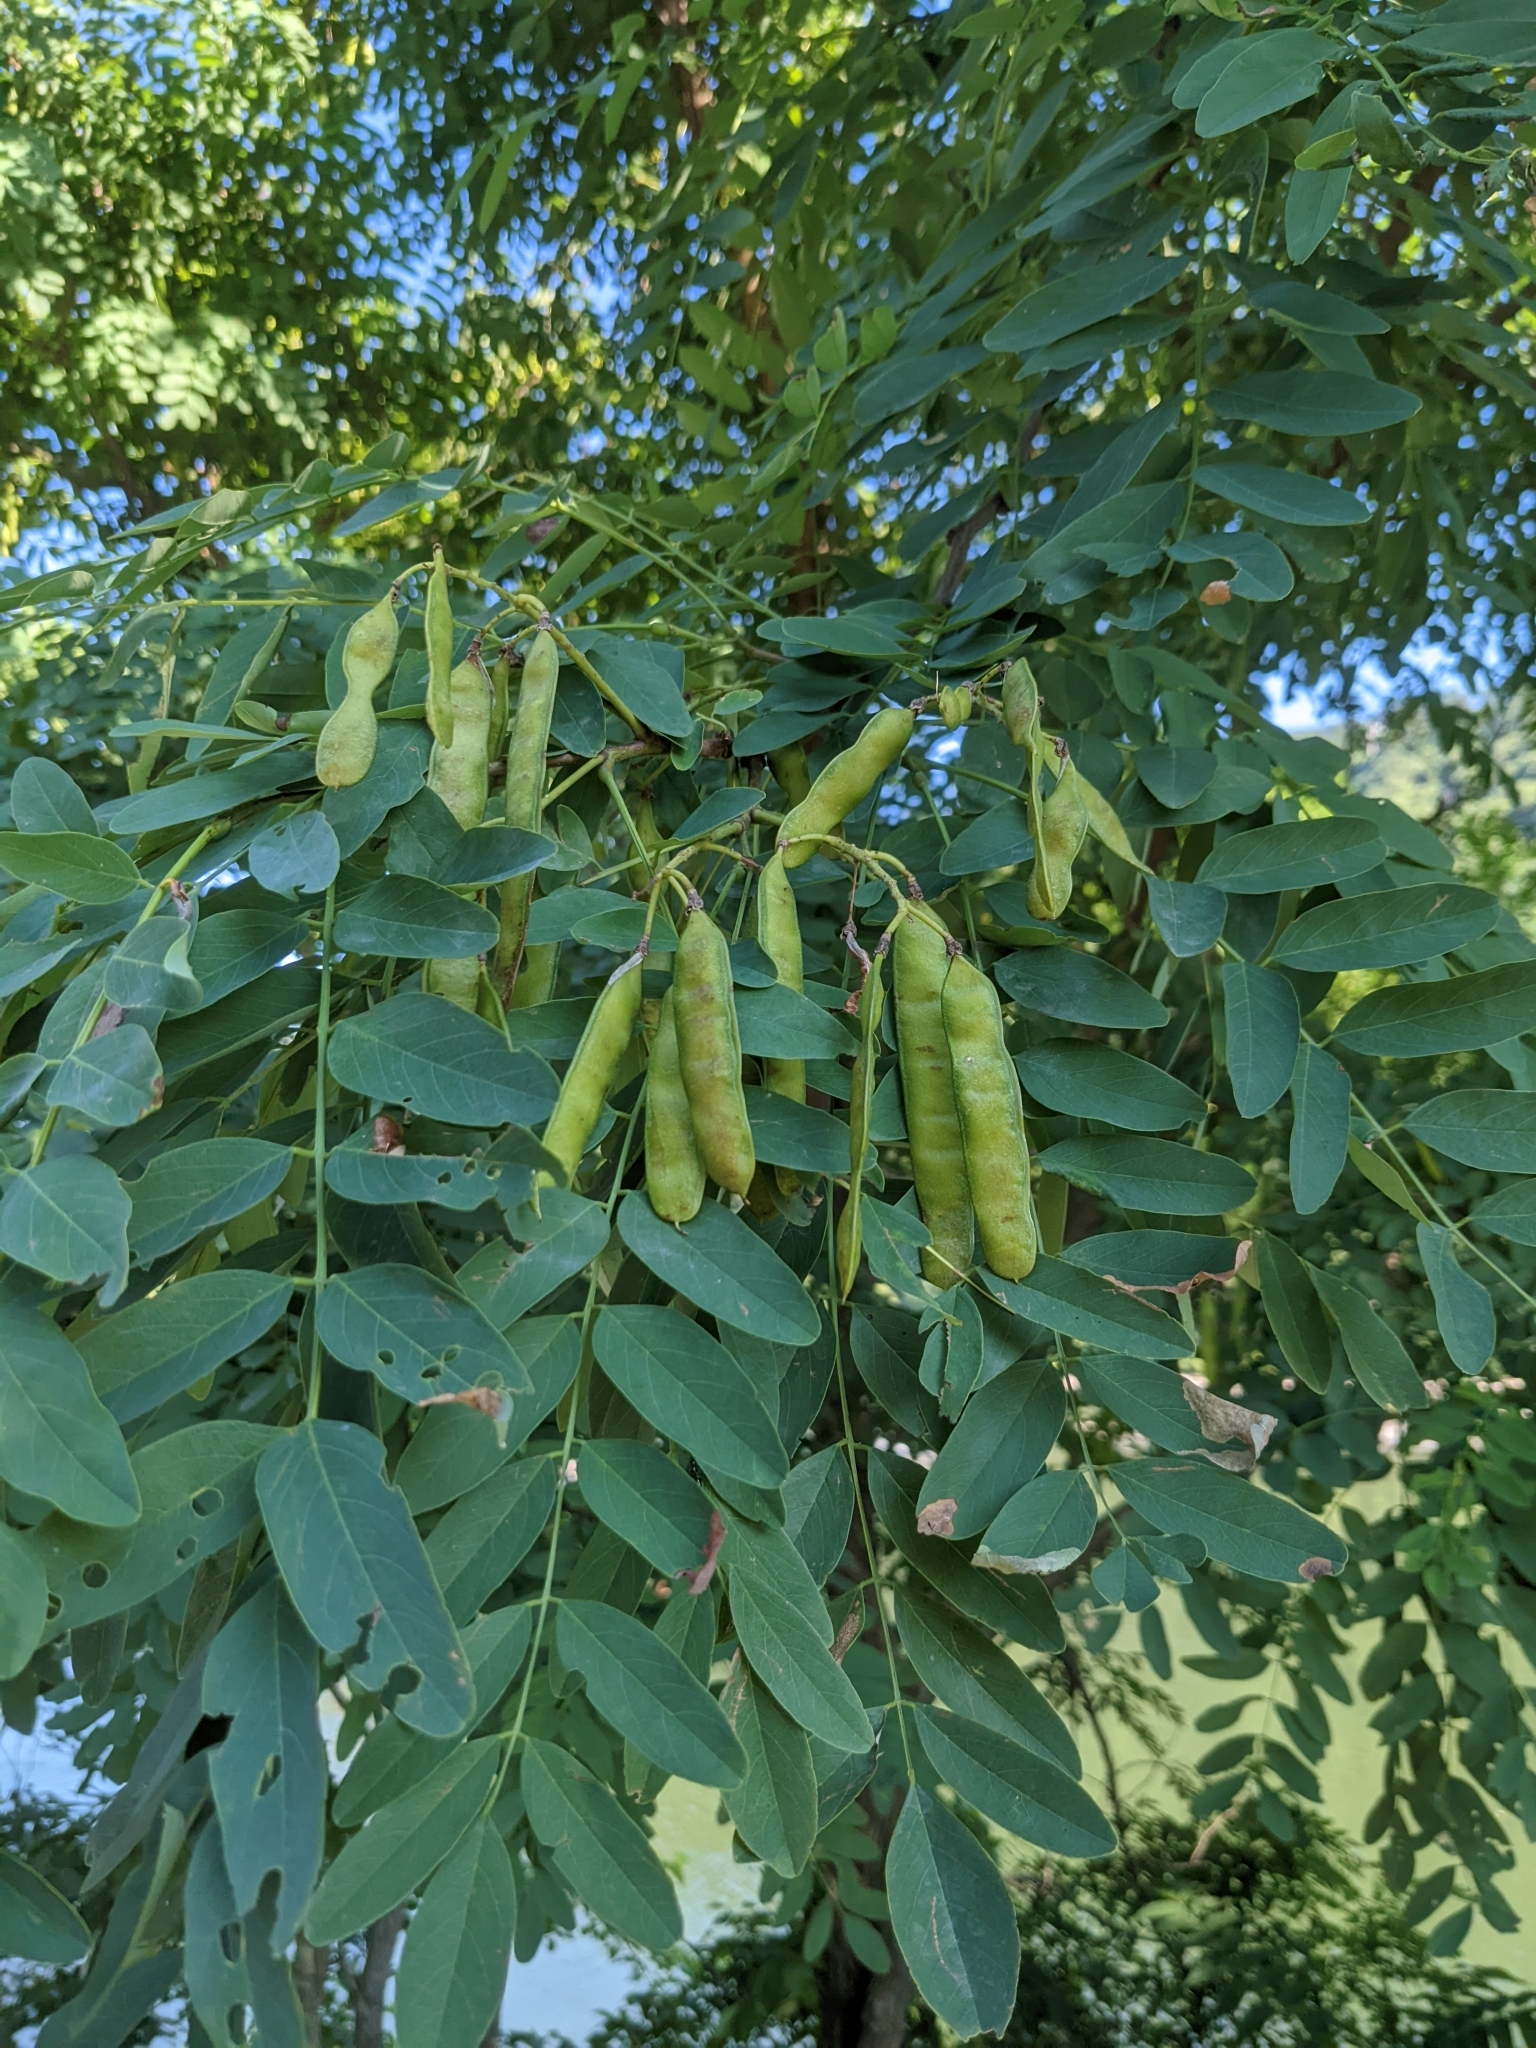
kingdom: Plantae
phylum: Tracheophyta
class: Magnoliopsida
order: Fabales
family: Fabaceae
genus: Robinia
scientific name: Robinia pseudoacacia
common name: Black locust
